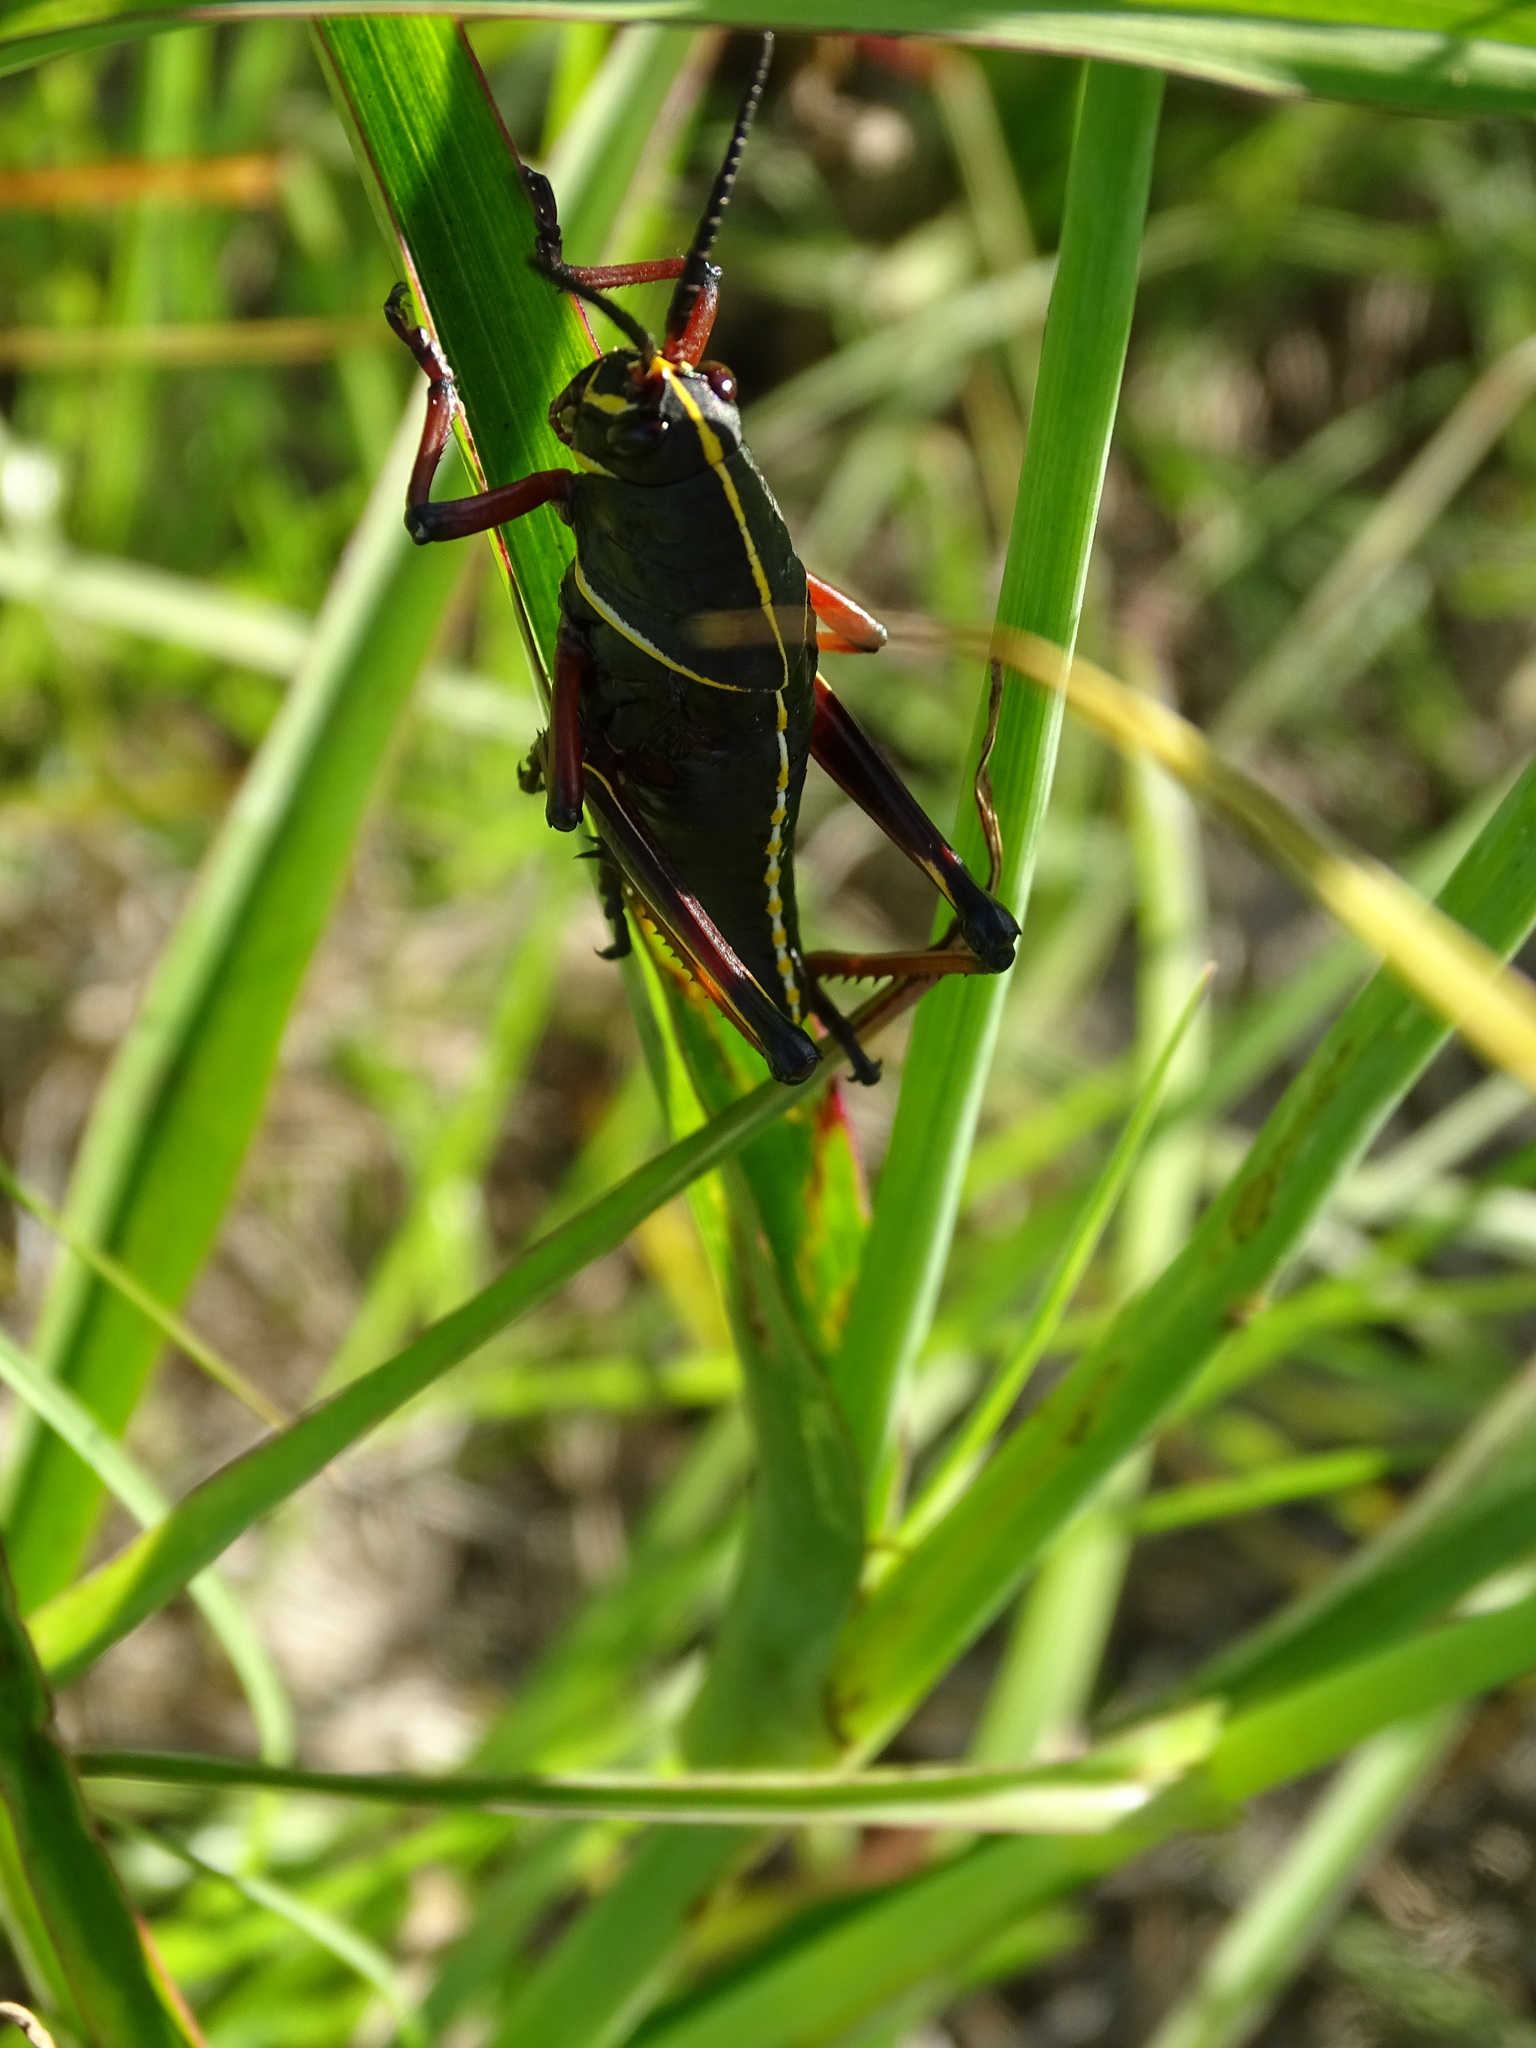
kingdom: Animalia
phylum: Arthropoda
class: Insecta
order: Orthoptera
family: Romaleidae
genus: Romalea
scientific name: Romalea microptera
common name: Eastern lubber grasshopper
